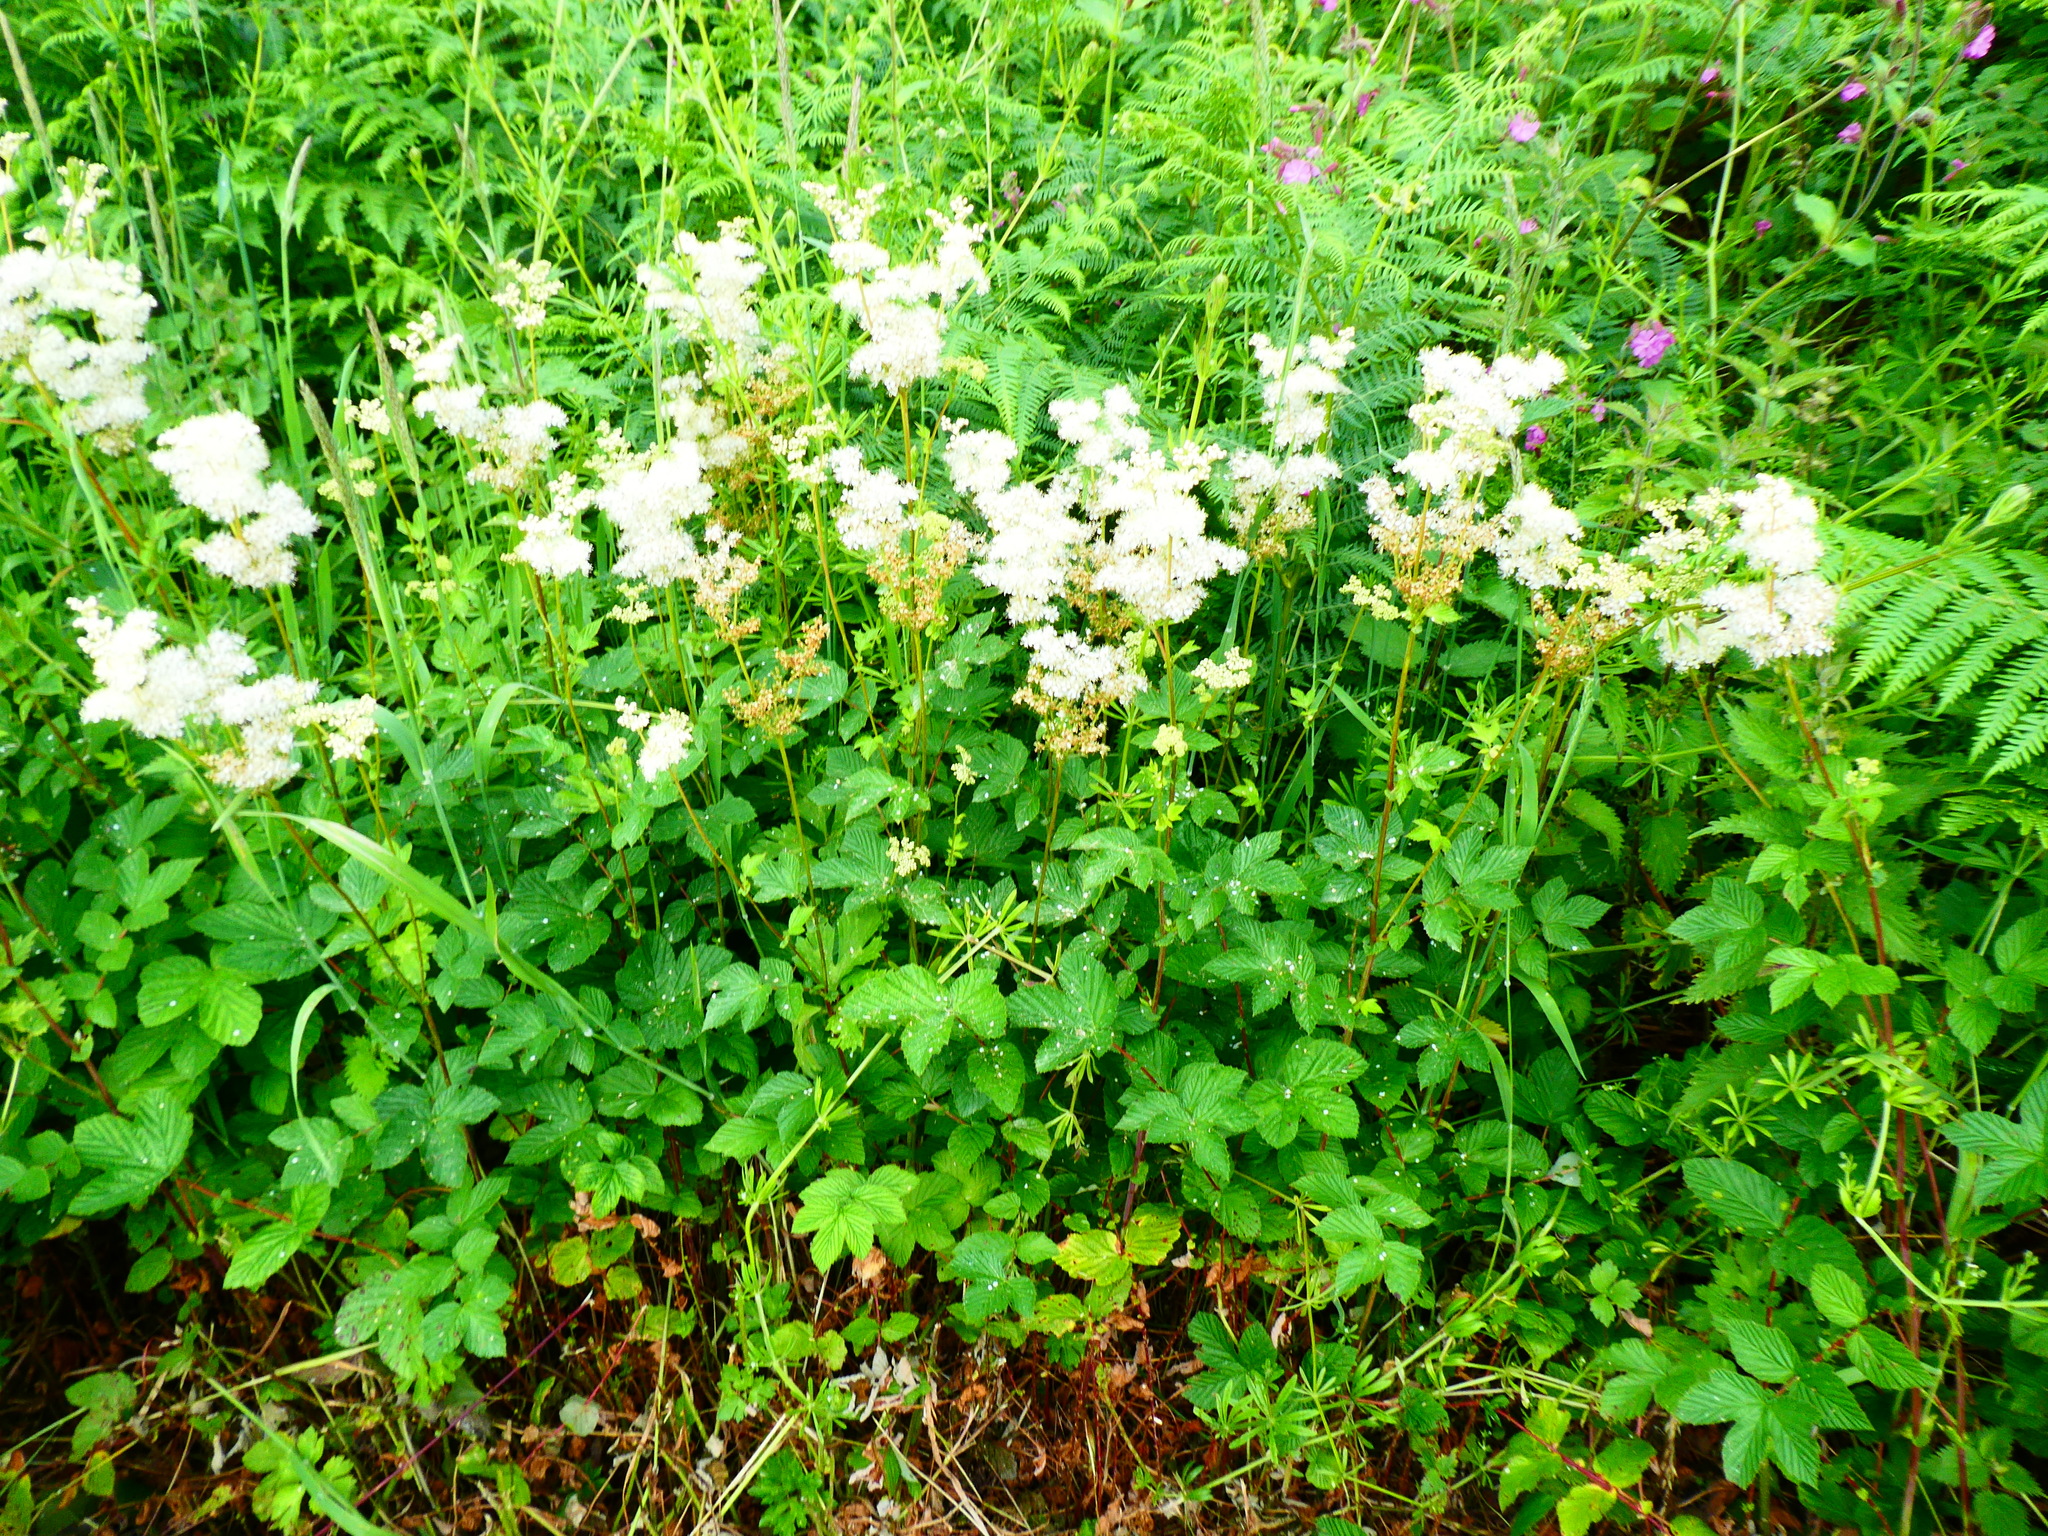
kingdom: Plantae
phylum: Tracheophyta
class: Magnoliopsida
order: Rosales
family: Rosaceae
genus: Filipendula
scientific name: Filipendula ulmaria
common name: Meadowsweet
